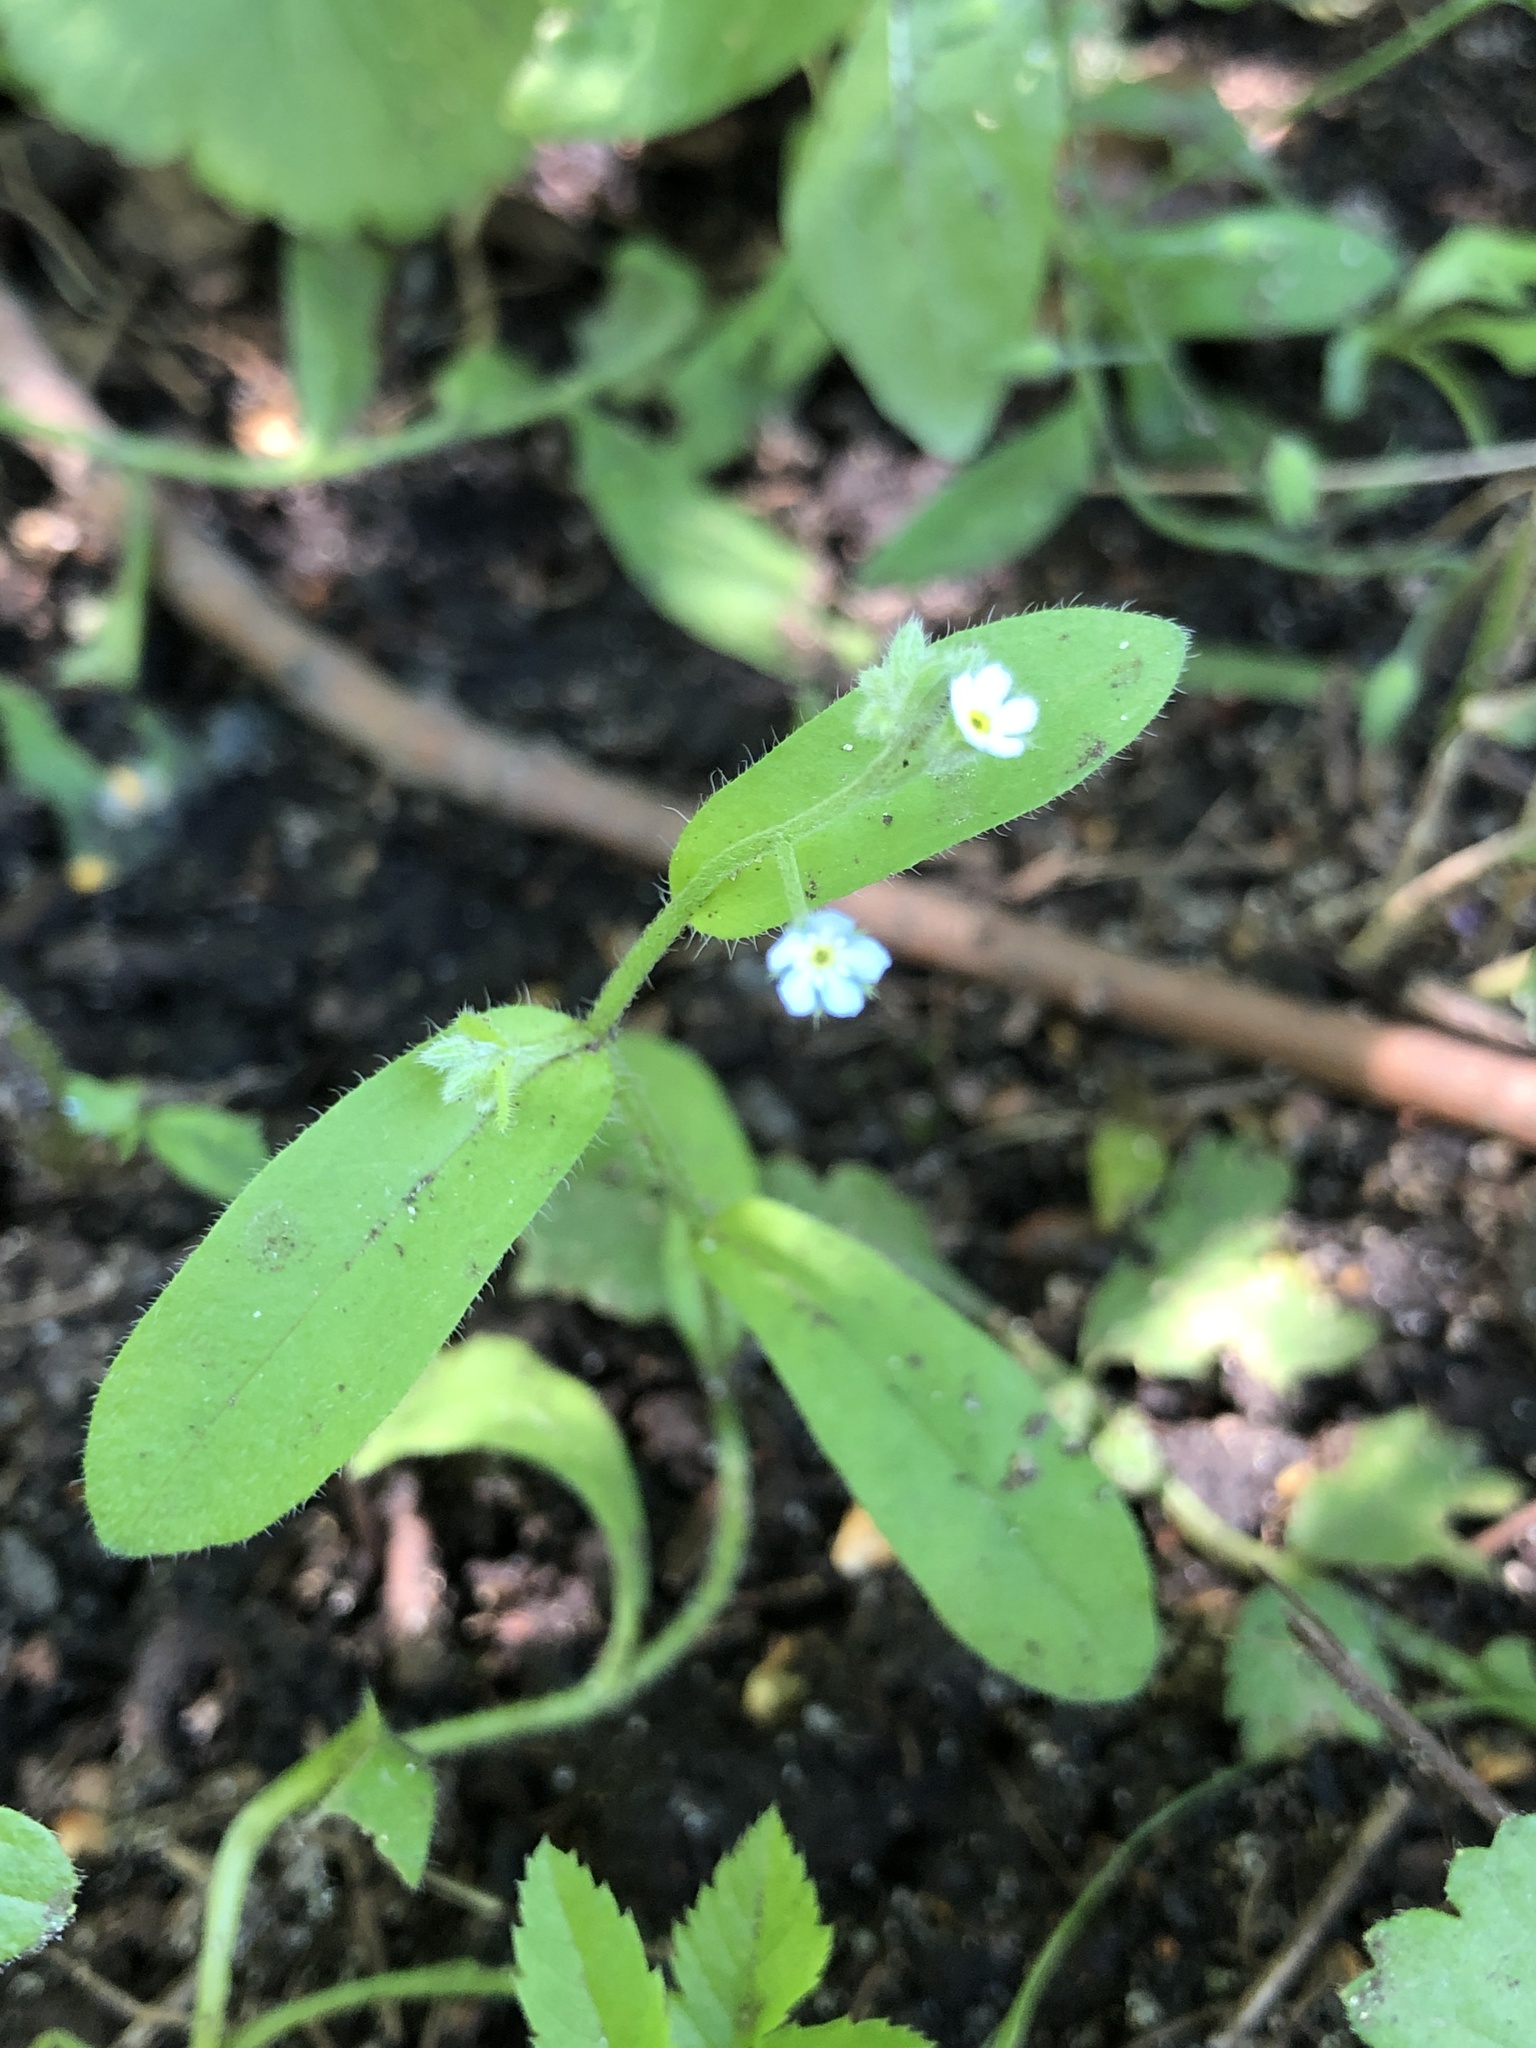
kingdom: Plantae
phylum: Tracheophyta
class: Magnoliopsida
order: Boraginales
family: Boraginaceae
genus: Myosotis
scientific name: Myosotis sparsiflora
